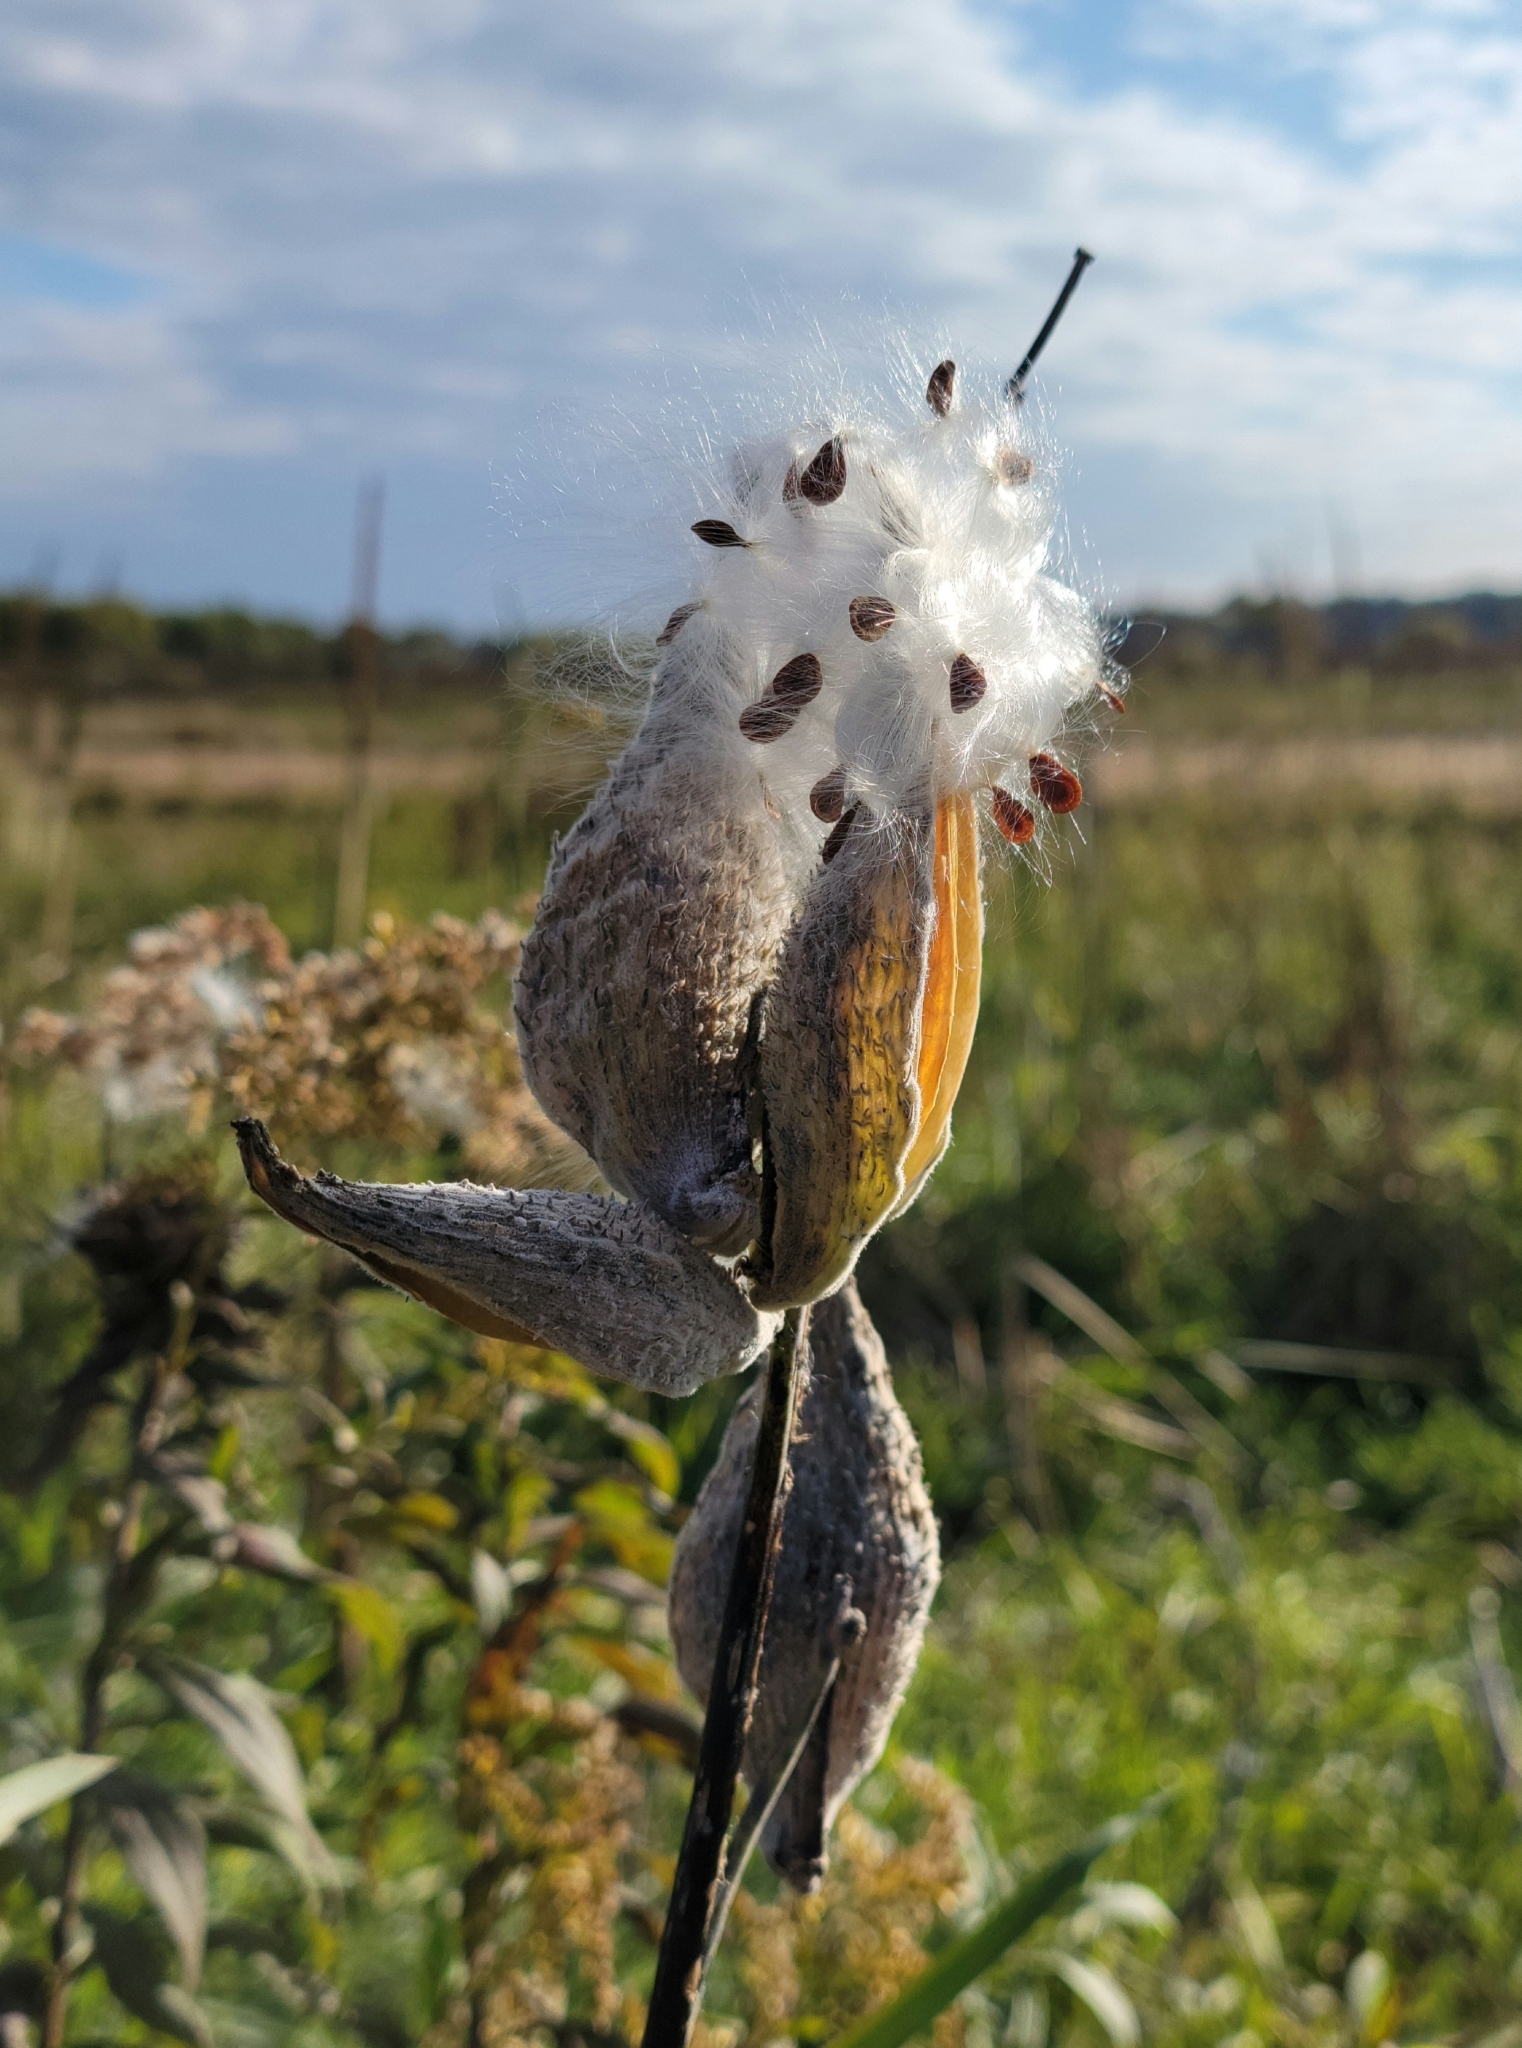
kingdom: Plantae
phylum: Tracheophyta
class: Magnoliopsida
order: Gentianales
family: Apocynaceae
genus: Asclepias
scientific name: Asclepias syriaca
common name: Common milkweed
